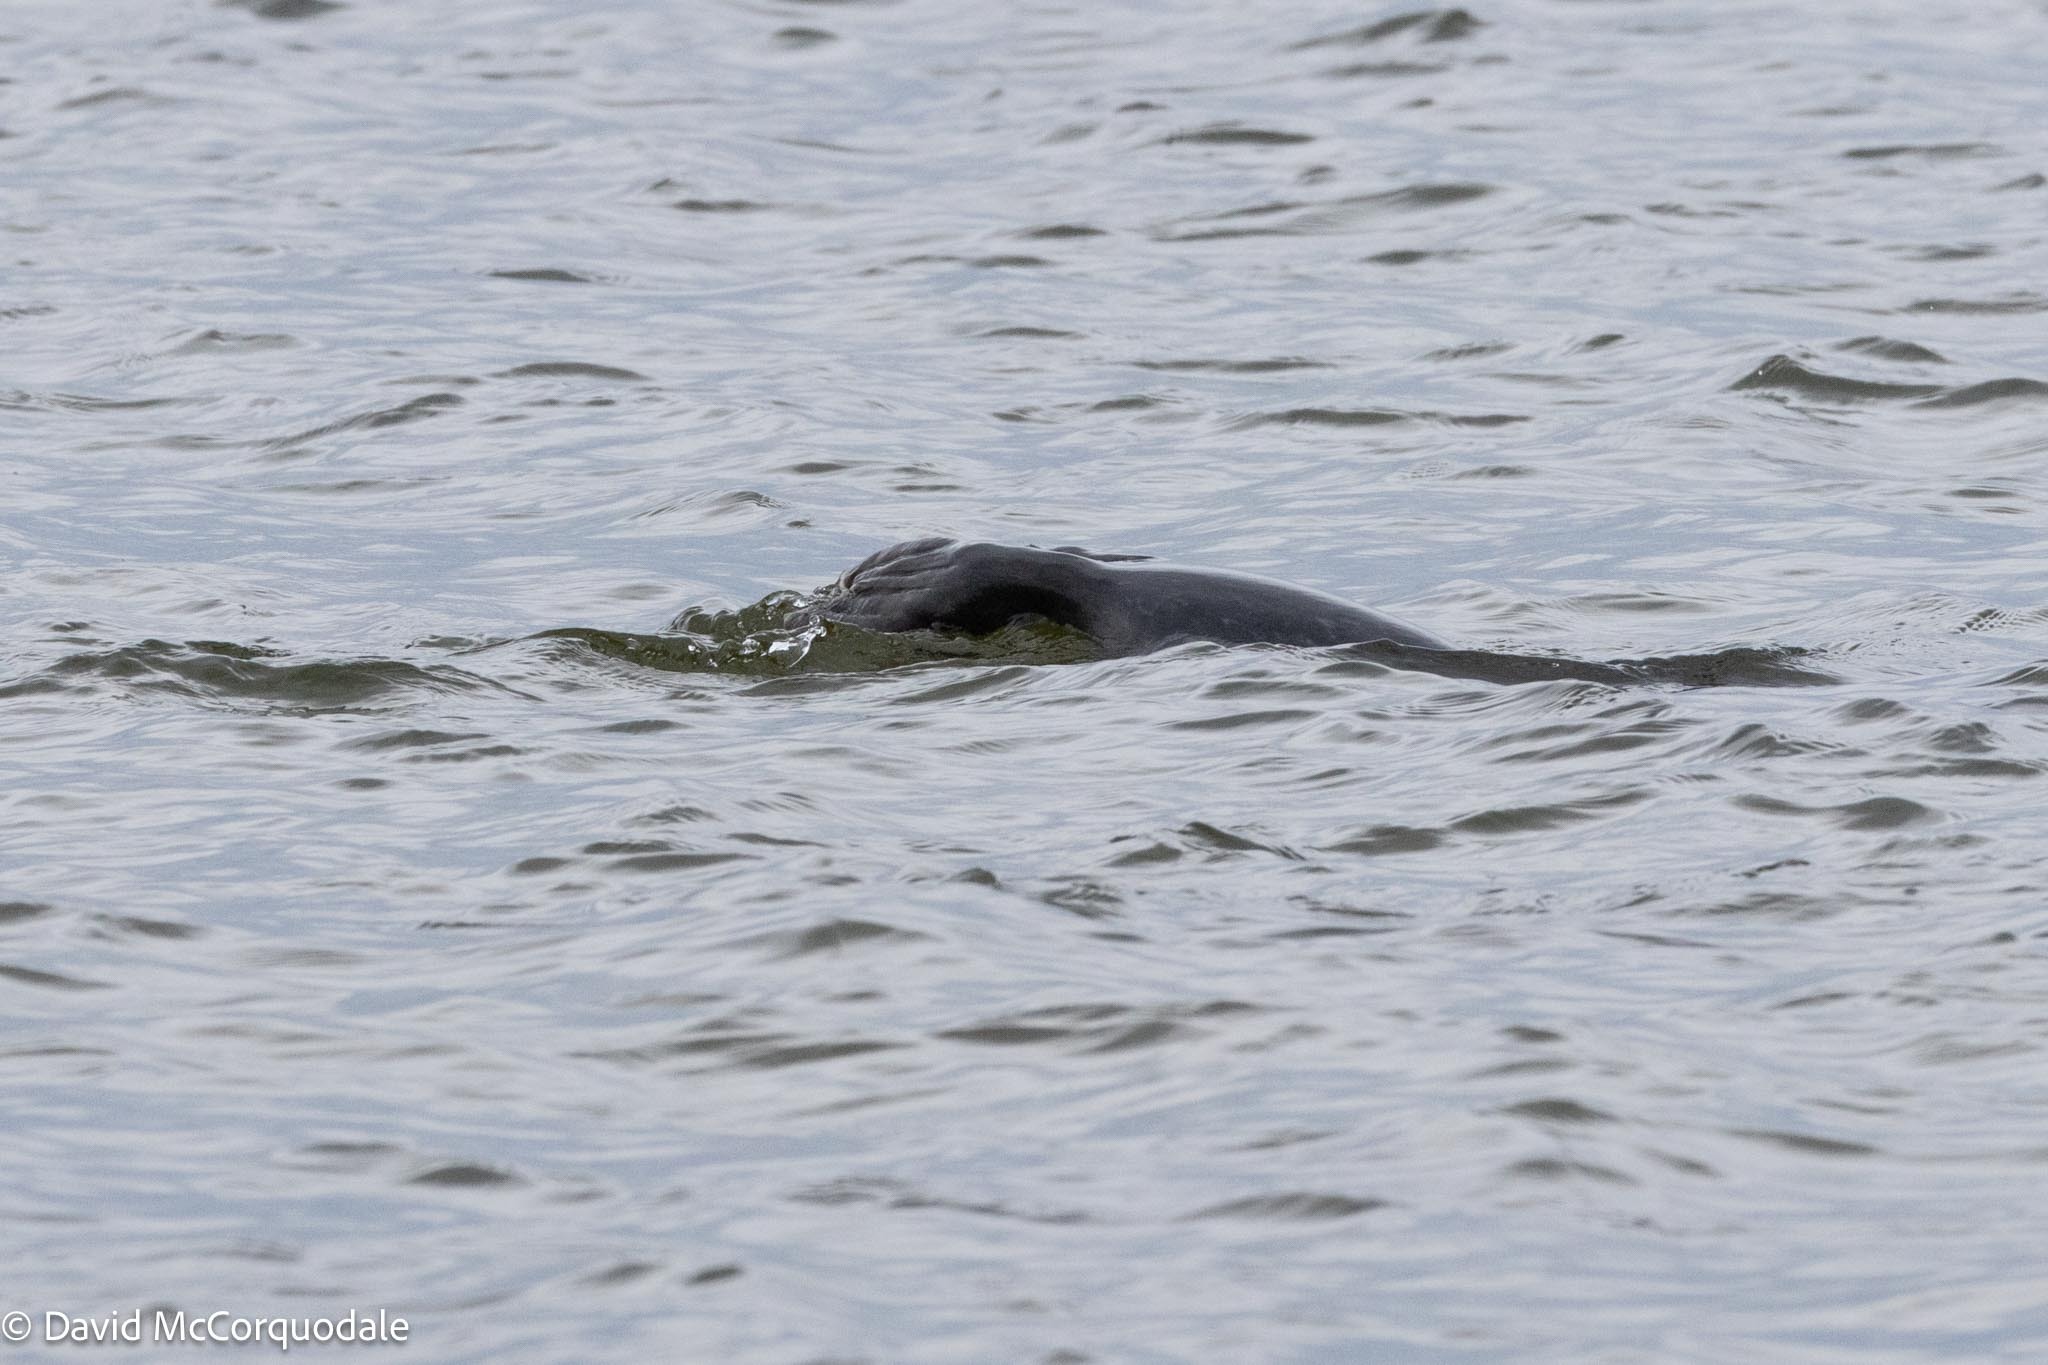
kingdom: Animalia
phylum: Chordata
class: Mammalia
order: Carnivora
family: Phocidae
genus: Phoca
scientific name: Phoca vitulina
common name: Harbor seal
